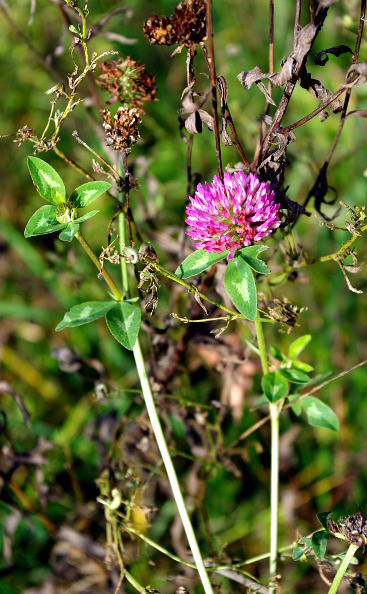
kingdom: Plantae
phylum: Tracheophyta
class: Magnoliopsida
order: Fabales
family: Fabaceae
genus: Trifolium
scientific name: Trifolium pratense
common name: Red clover
